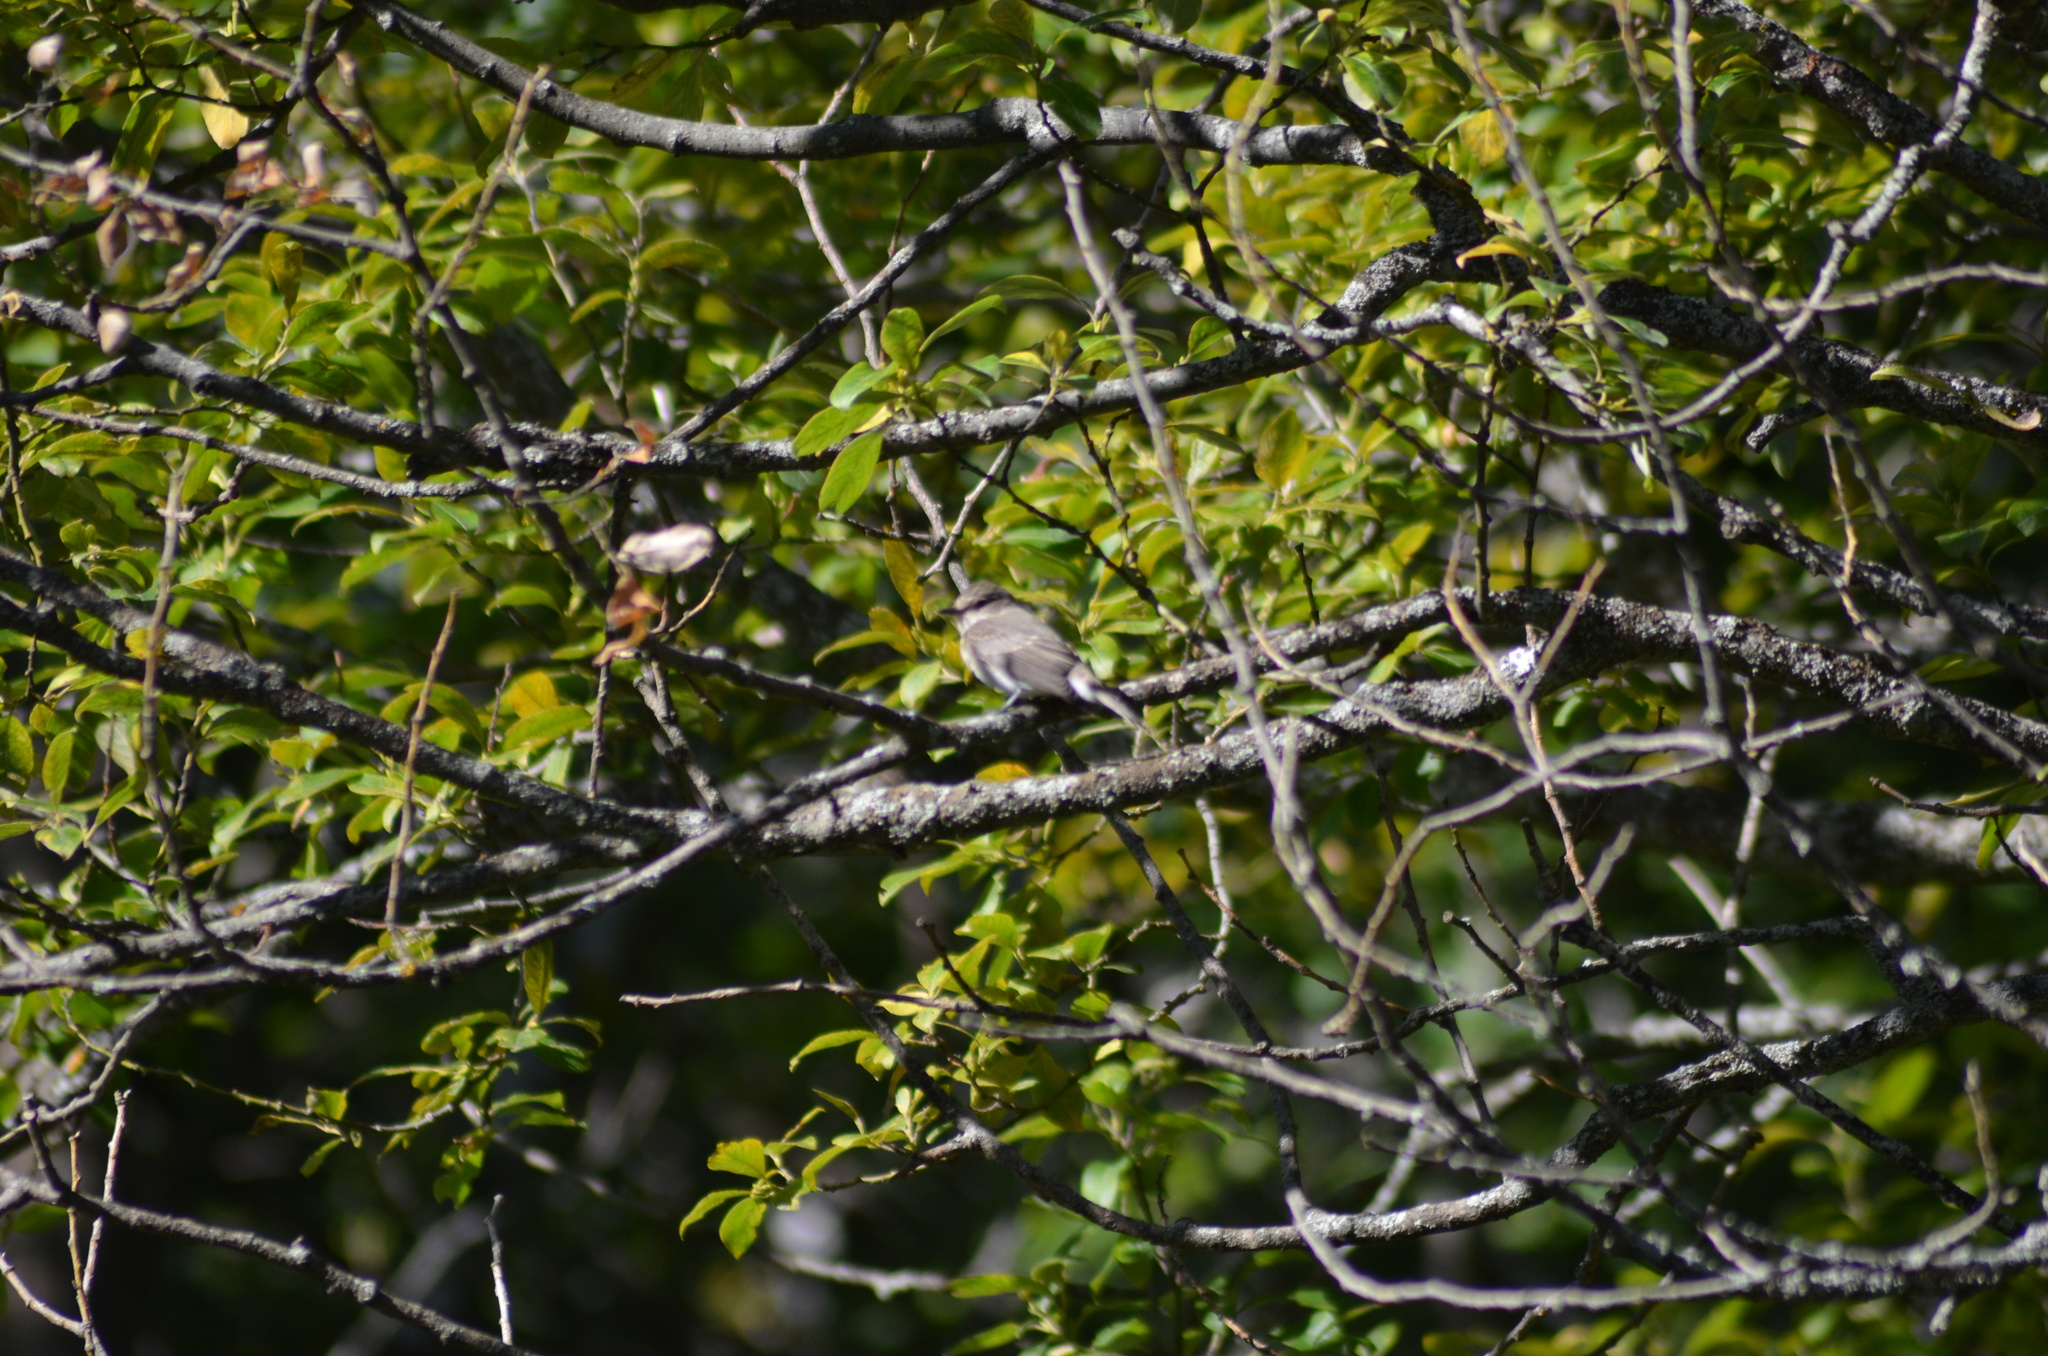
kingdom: Animalia
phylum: Chordata
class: Aves
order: Passeriformes
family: Muscicapidae
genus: Ficedula
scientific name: Ficedula hypoleuca
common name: European pied flycatcher
